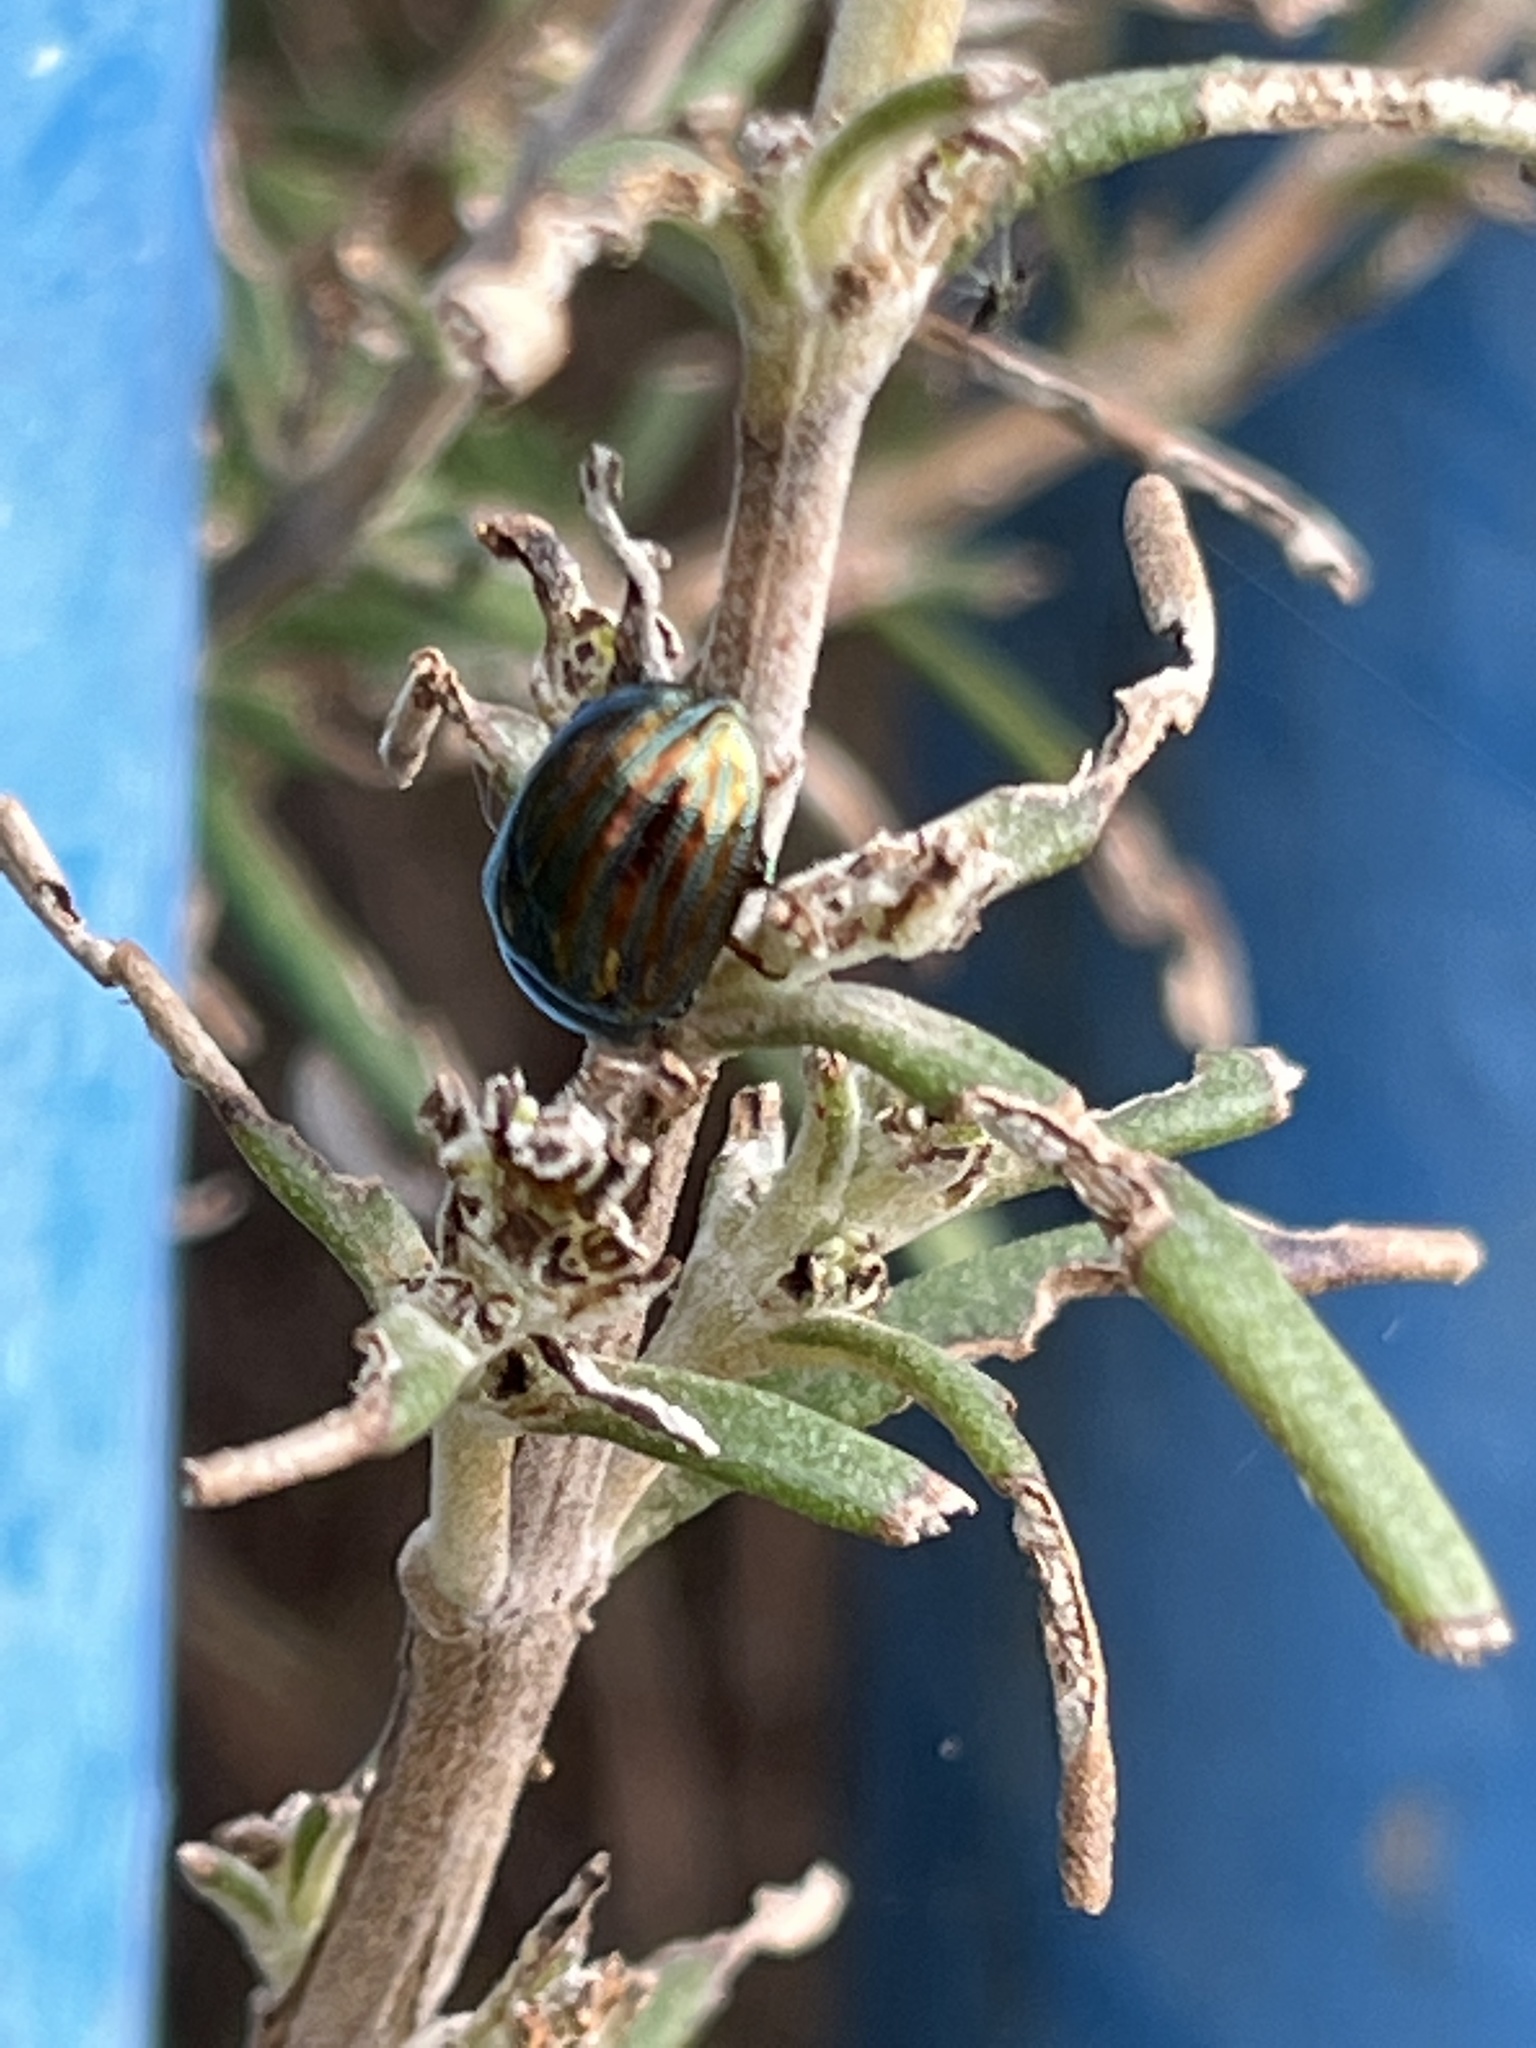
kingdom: Animalia
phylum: Arthropoda
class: Insecta
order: Coleoptera
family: Chrysomelidae
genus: Chrysolina
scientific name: Chrysolina americana
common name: Rosemary beetle
